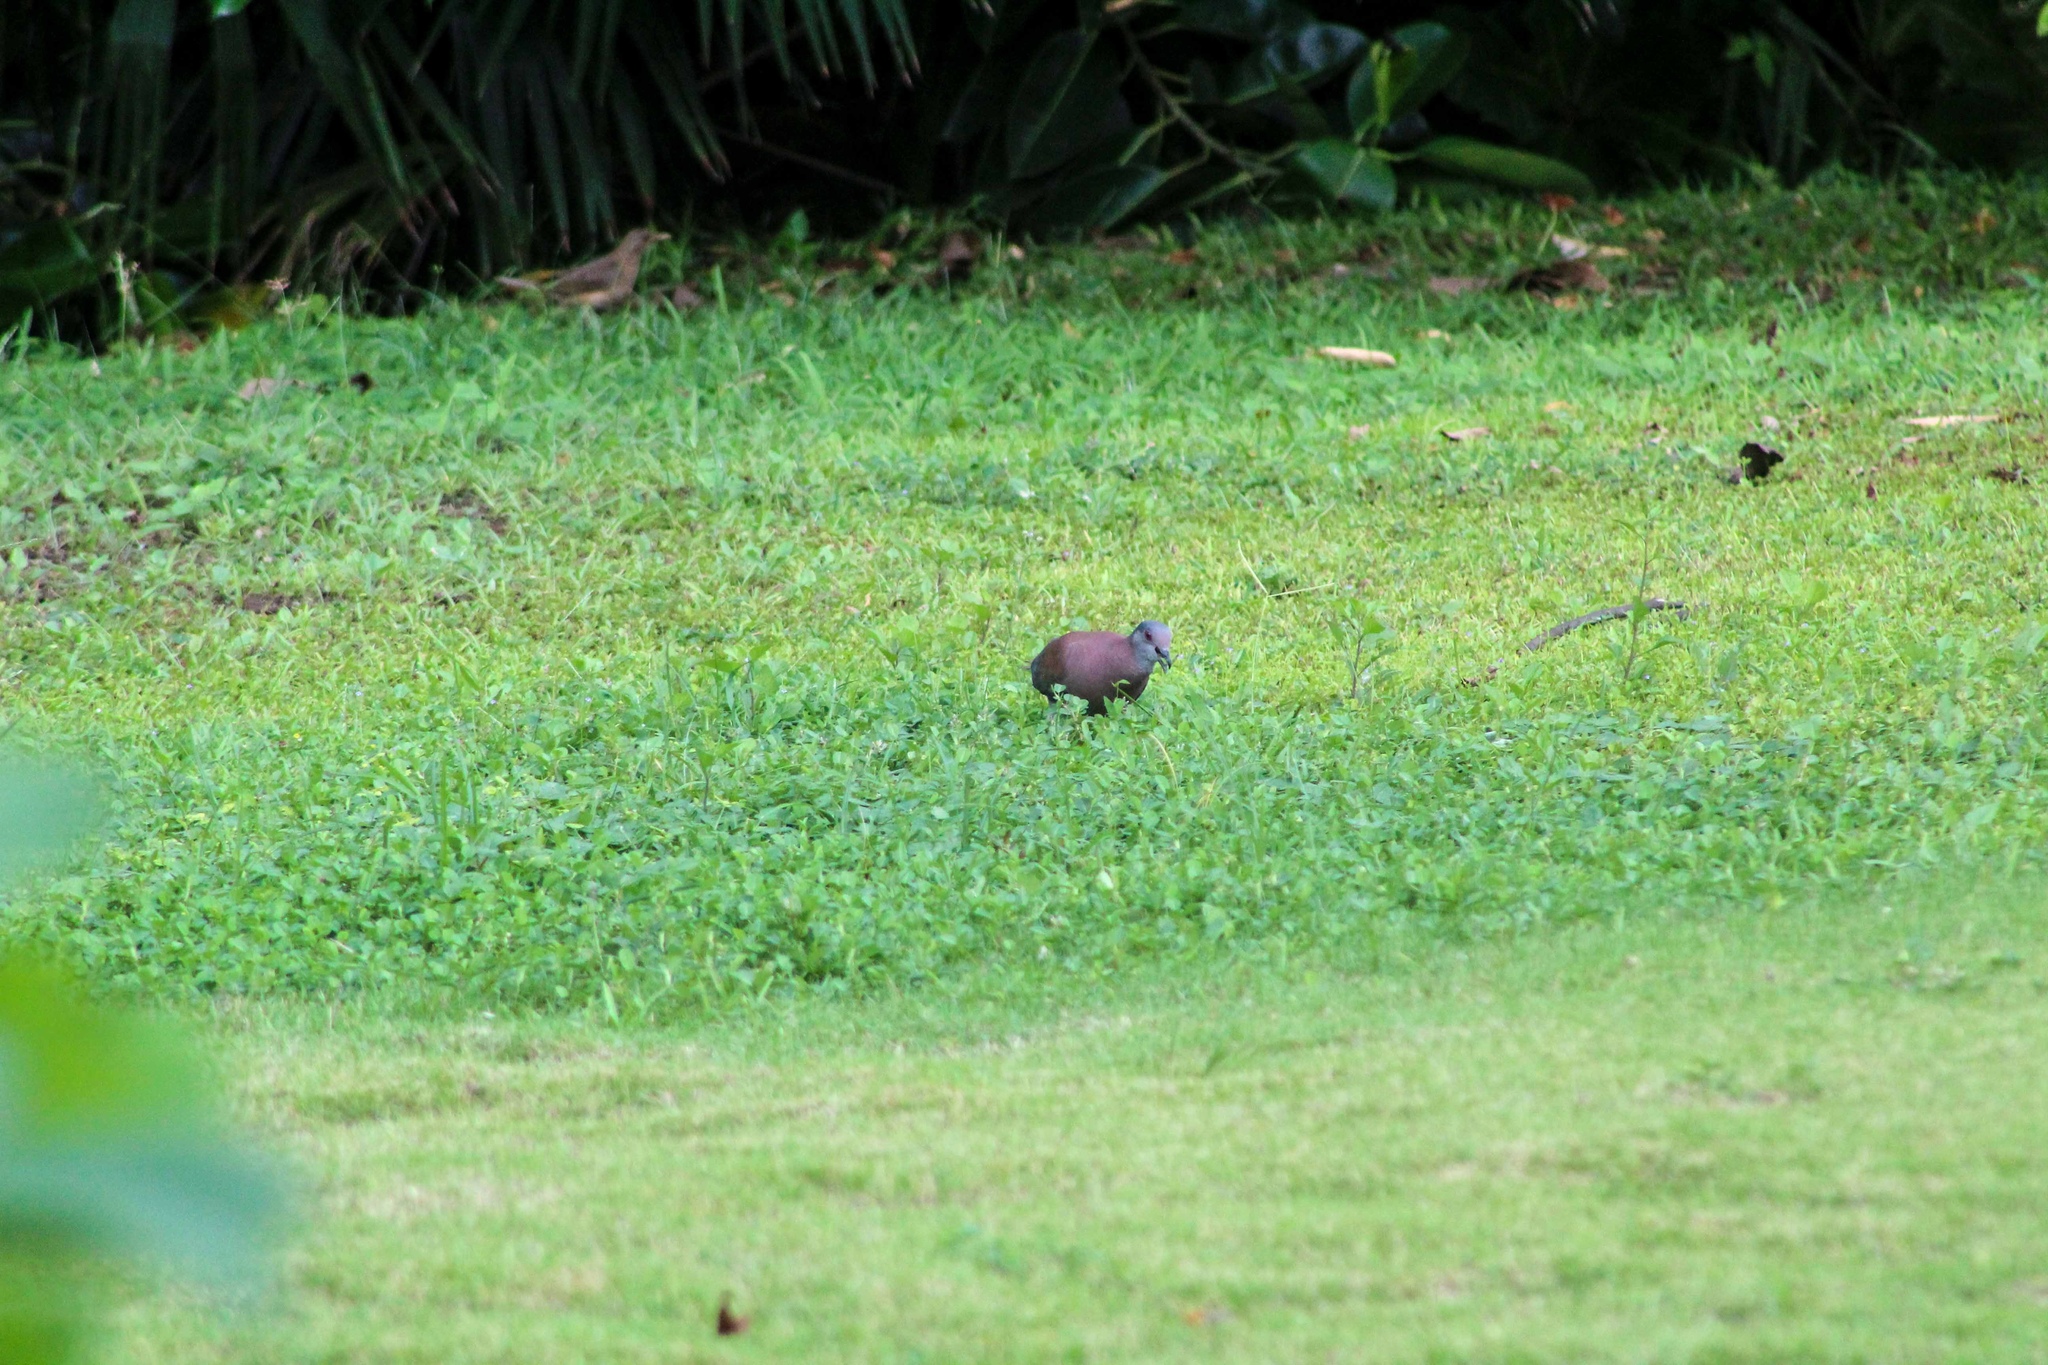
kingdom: Animalia
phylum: Chordata
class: Aves
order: Columbiformes
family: Columbidae
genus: Patagioenas
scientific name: Patagioenas cayennensis
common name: Pale-vented pigeon
